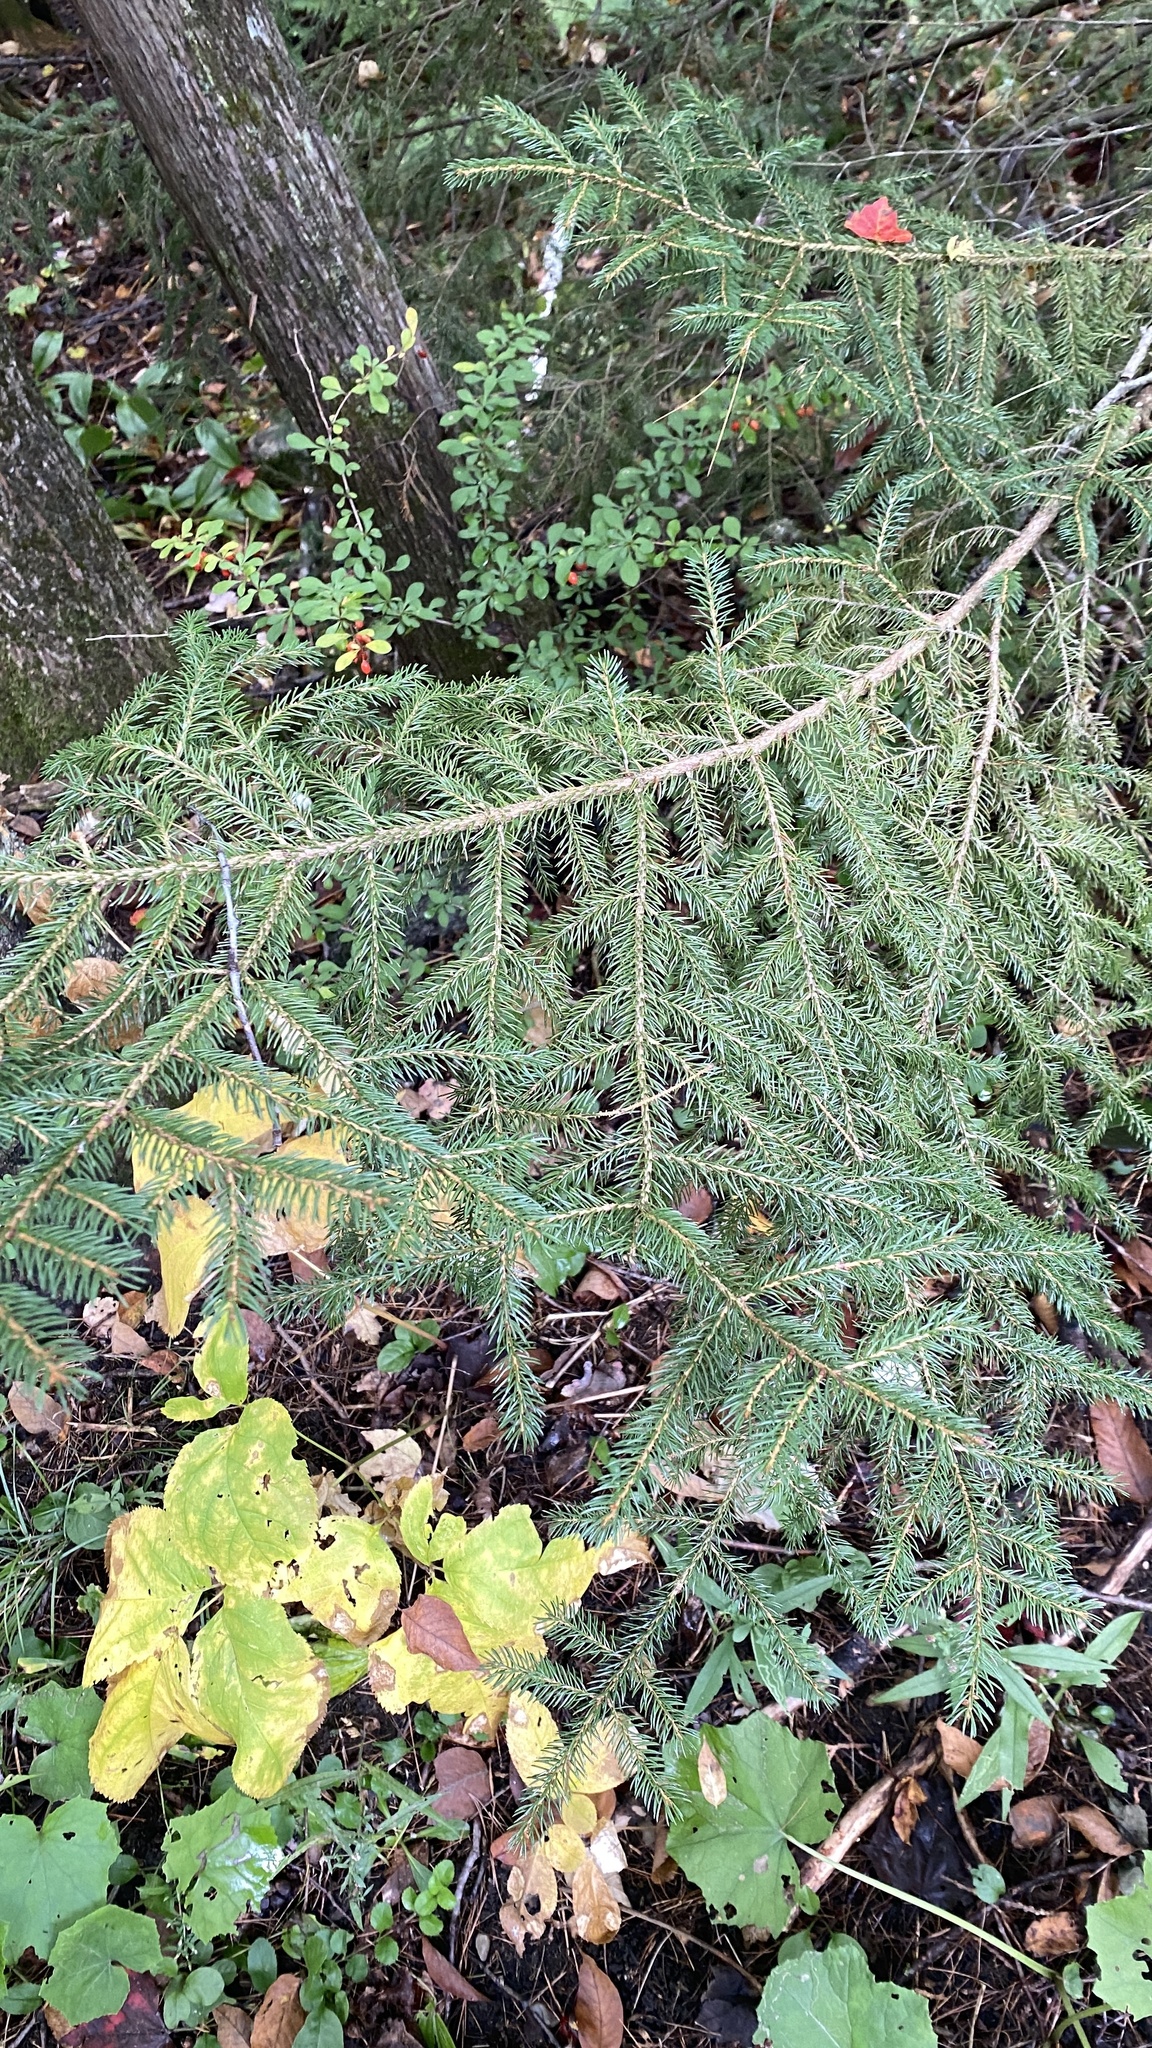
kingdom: Plantae
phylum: Tracheophyta
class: Pinopsida
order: Pinales
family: Pinaceae
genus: Picea
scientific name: Picea rubens
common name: Red spruce
